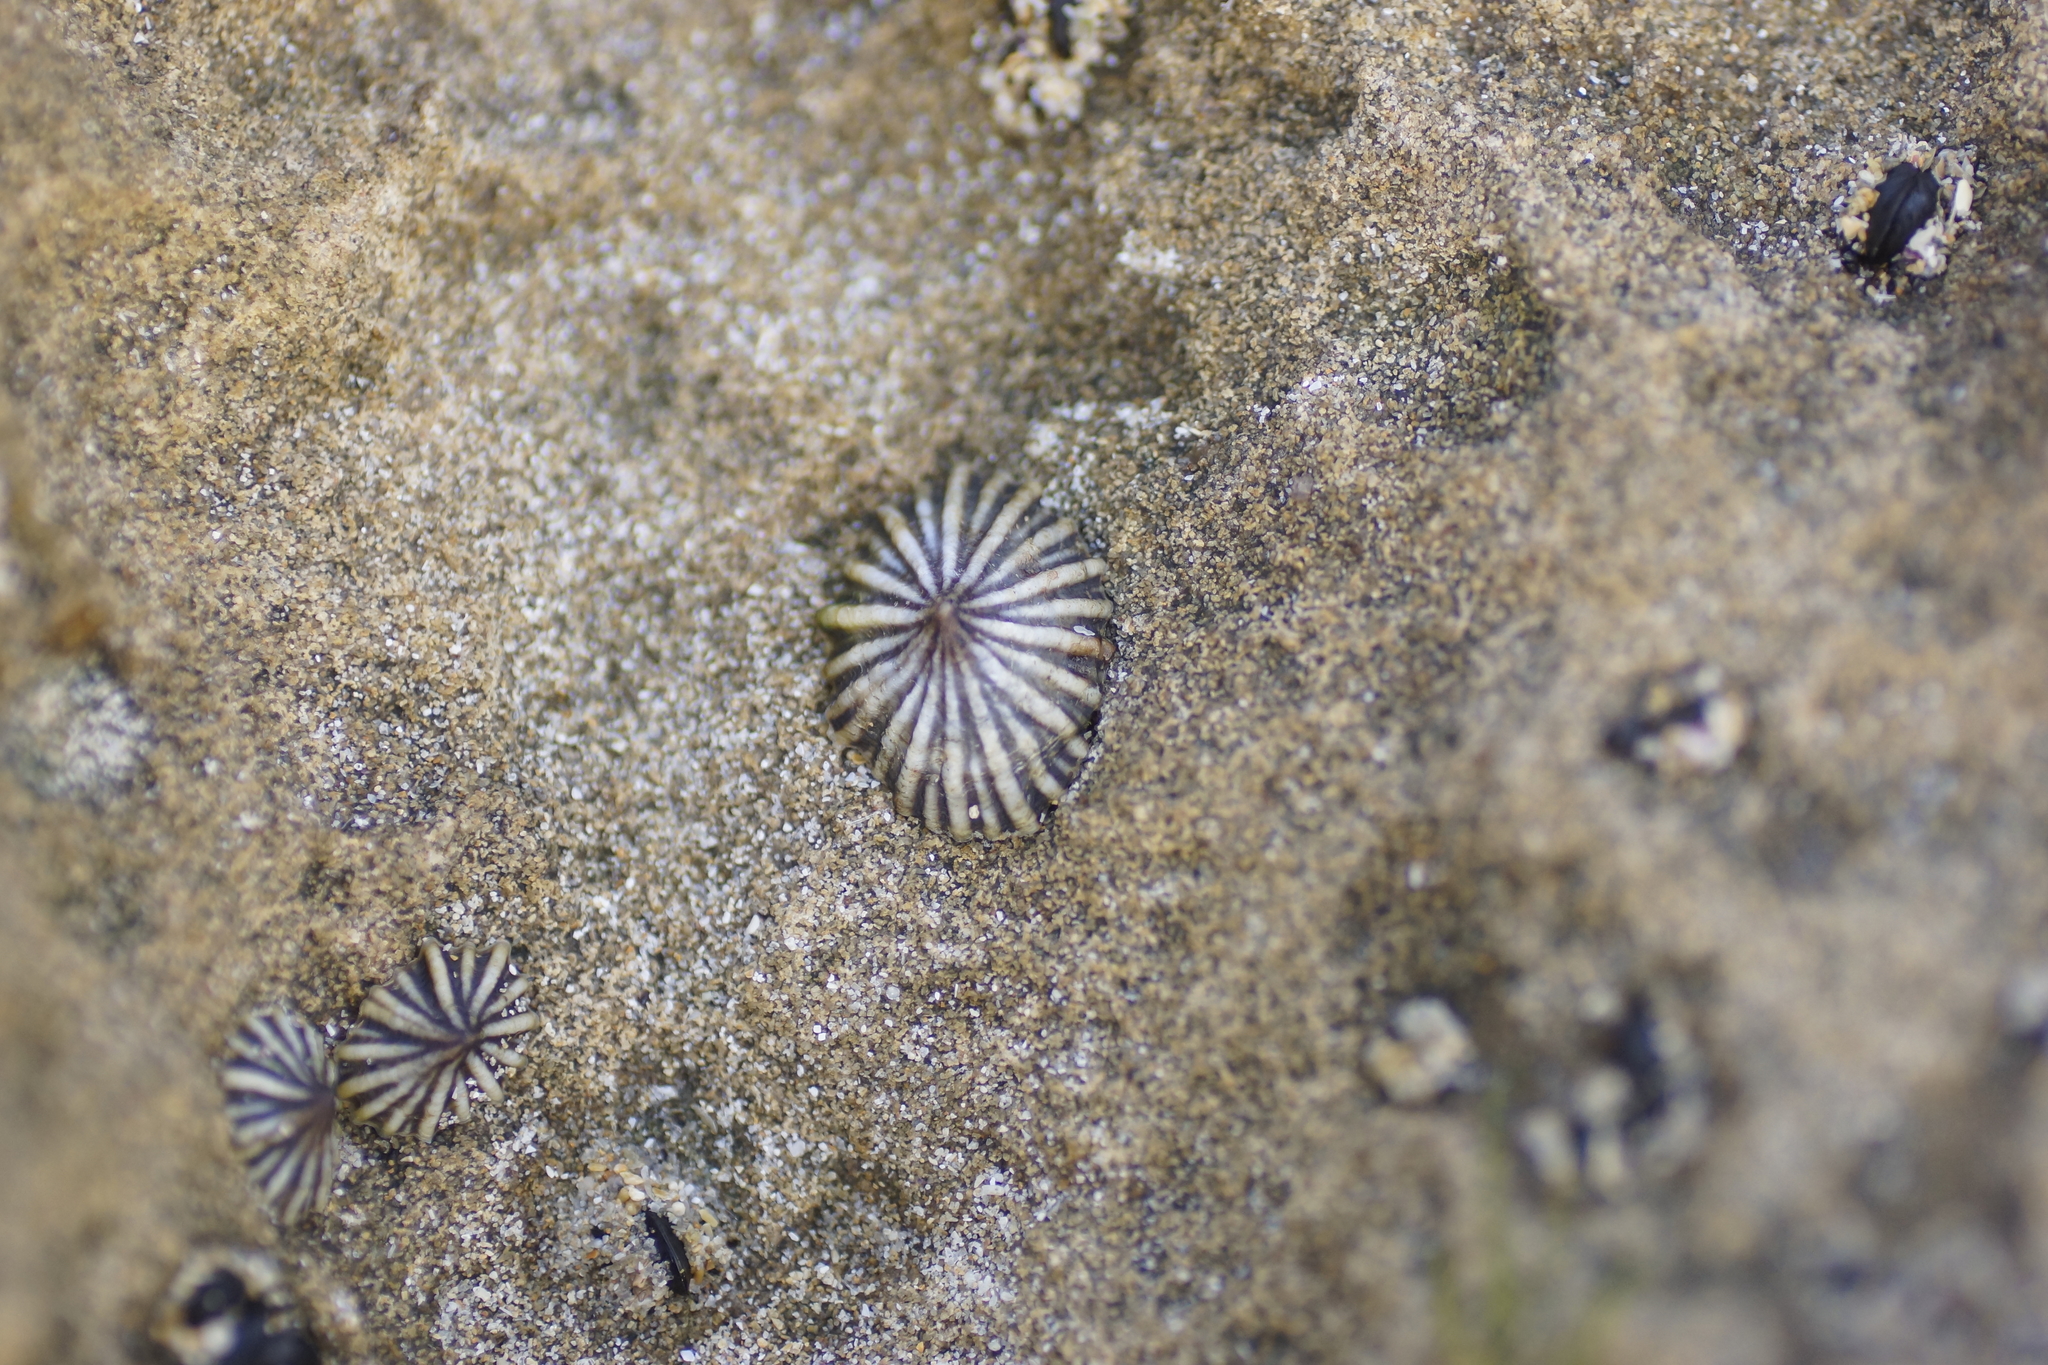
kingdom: Animalia
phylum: Mollusca
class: Gastropoda
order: Siphonariida
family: Siphonariidae
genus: Siphonaria
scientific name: Siphonaria diemenensis
